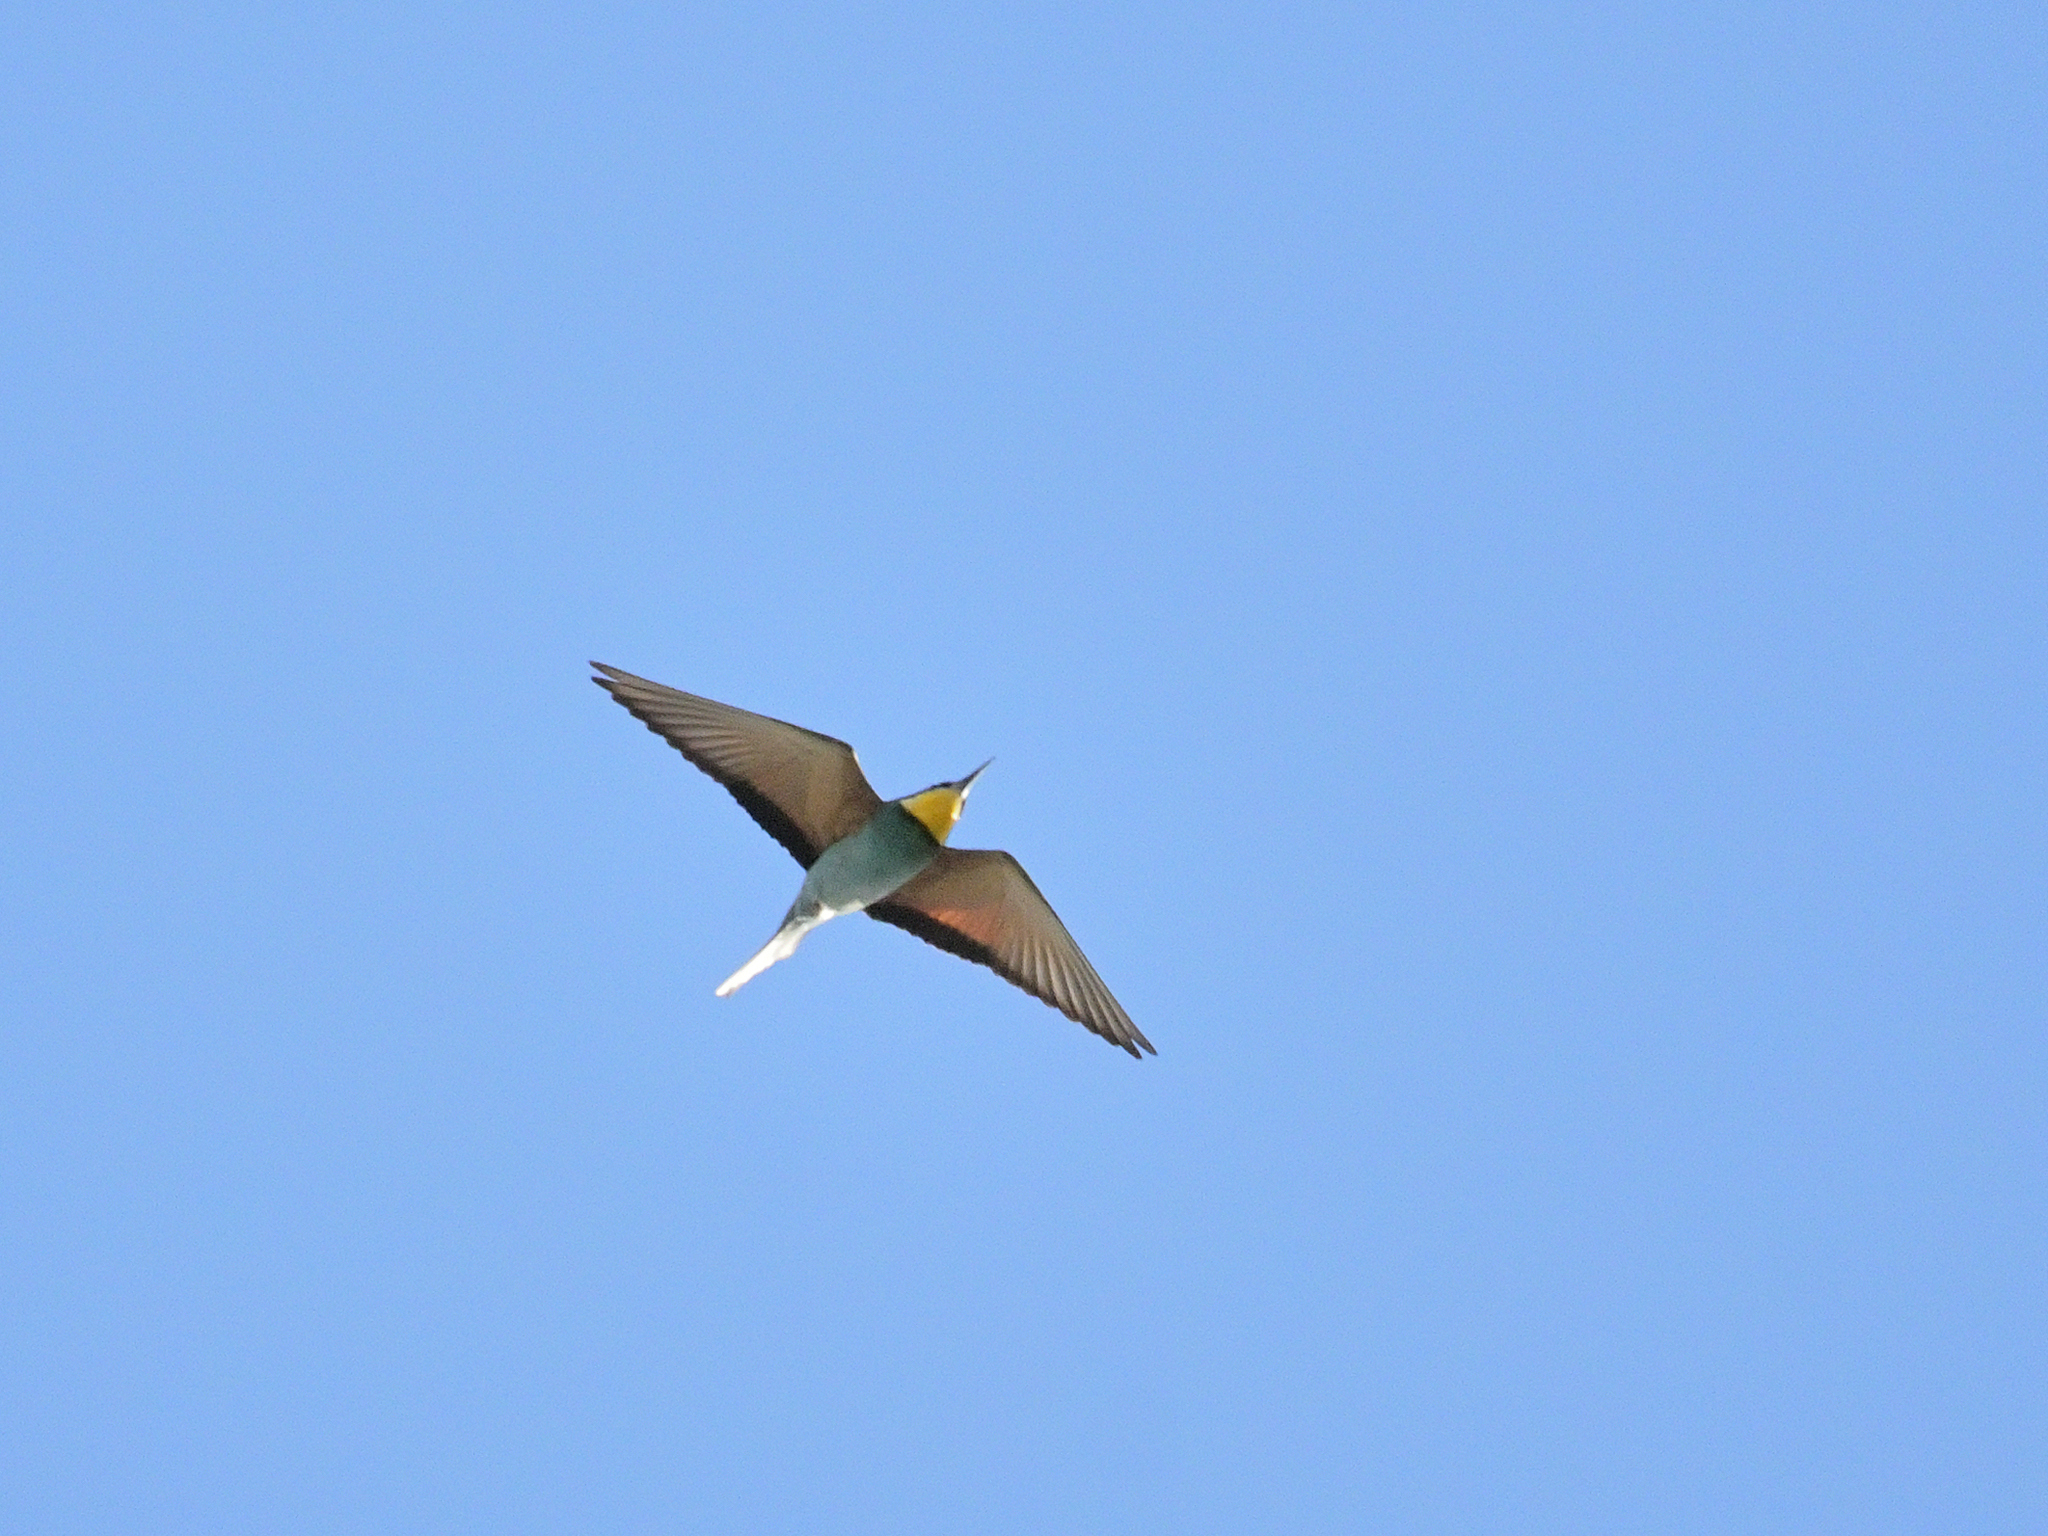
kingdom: Animalia
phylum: Chordata
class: Aves
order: Coraciiformes
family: Meropidae
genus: Merops
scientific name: Merops apiaster
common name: European bee-eater
